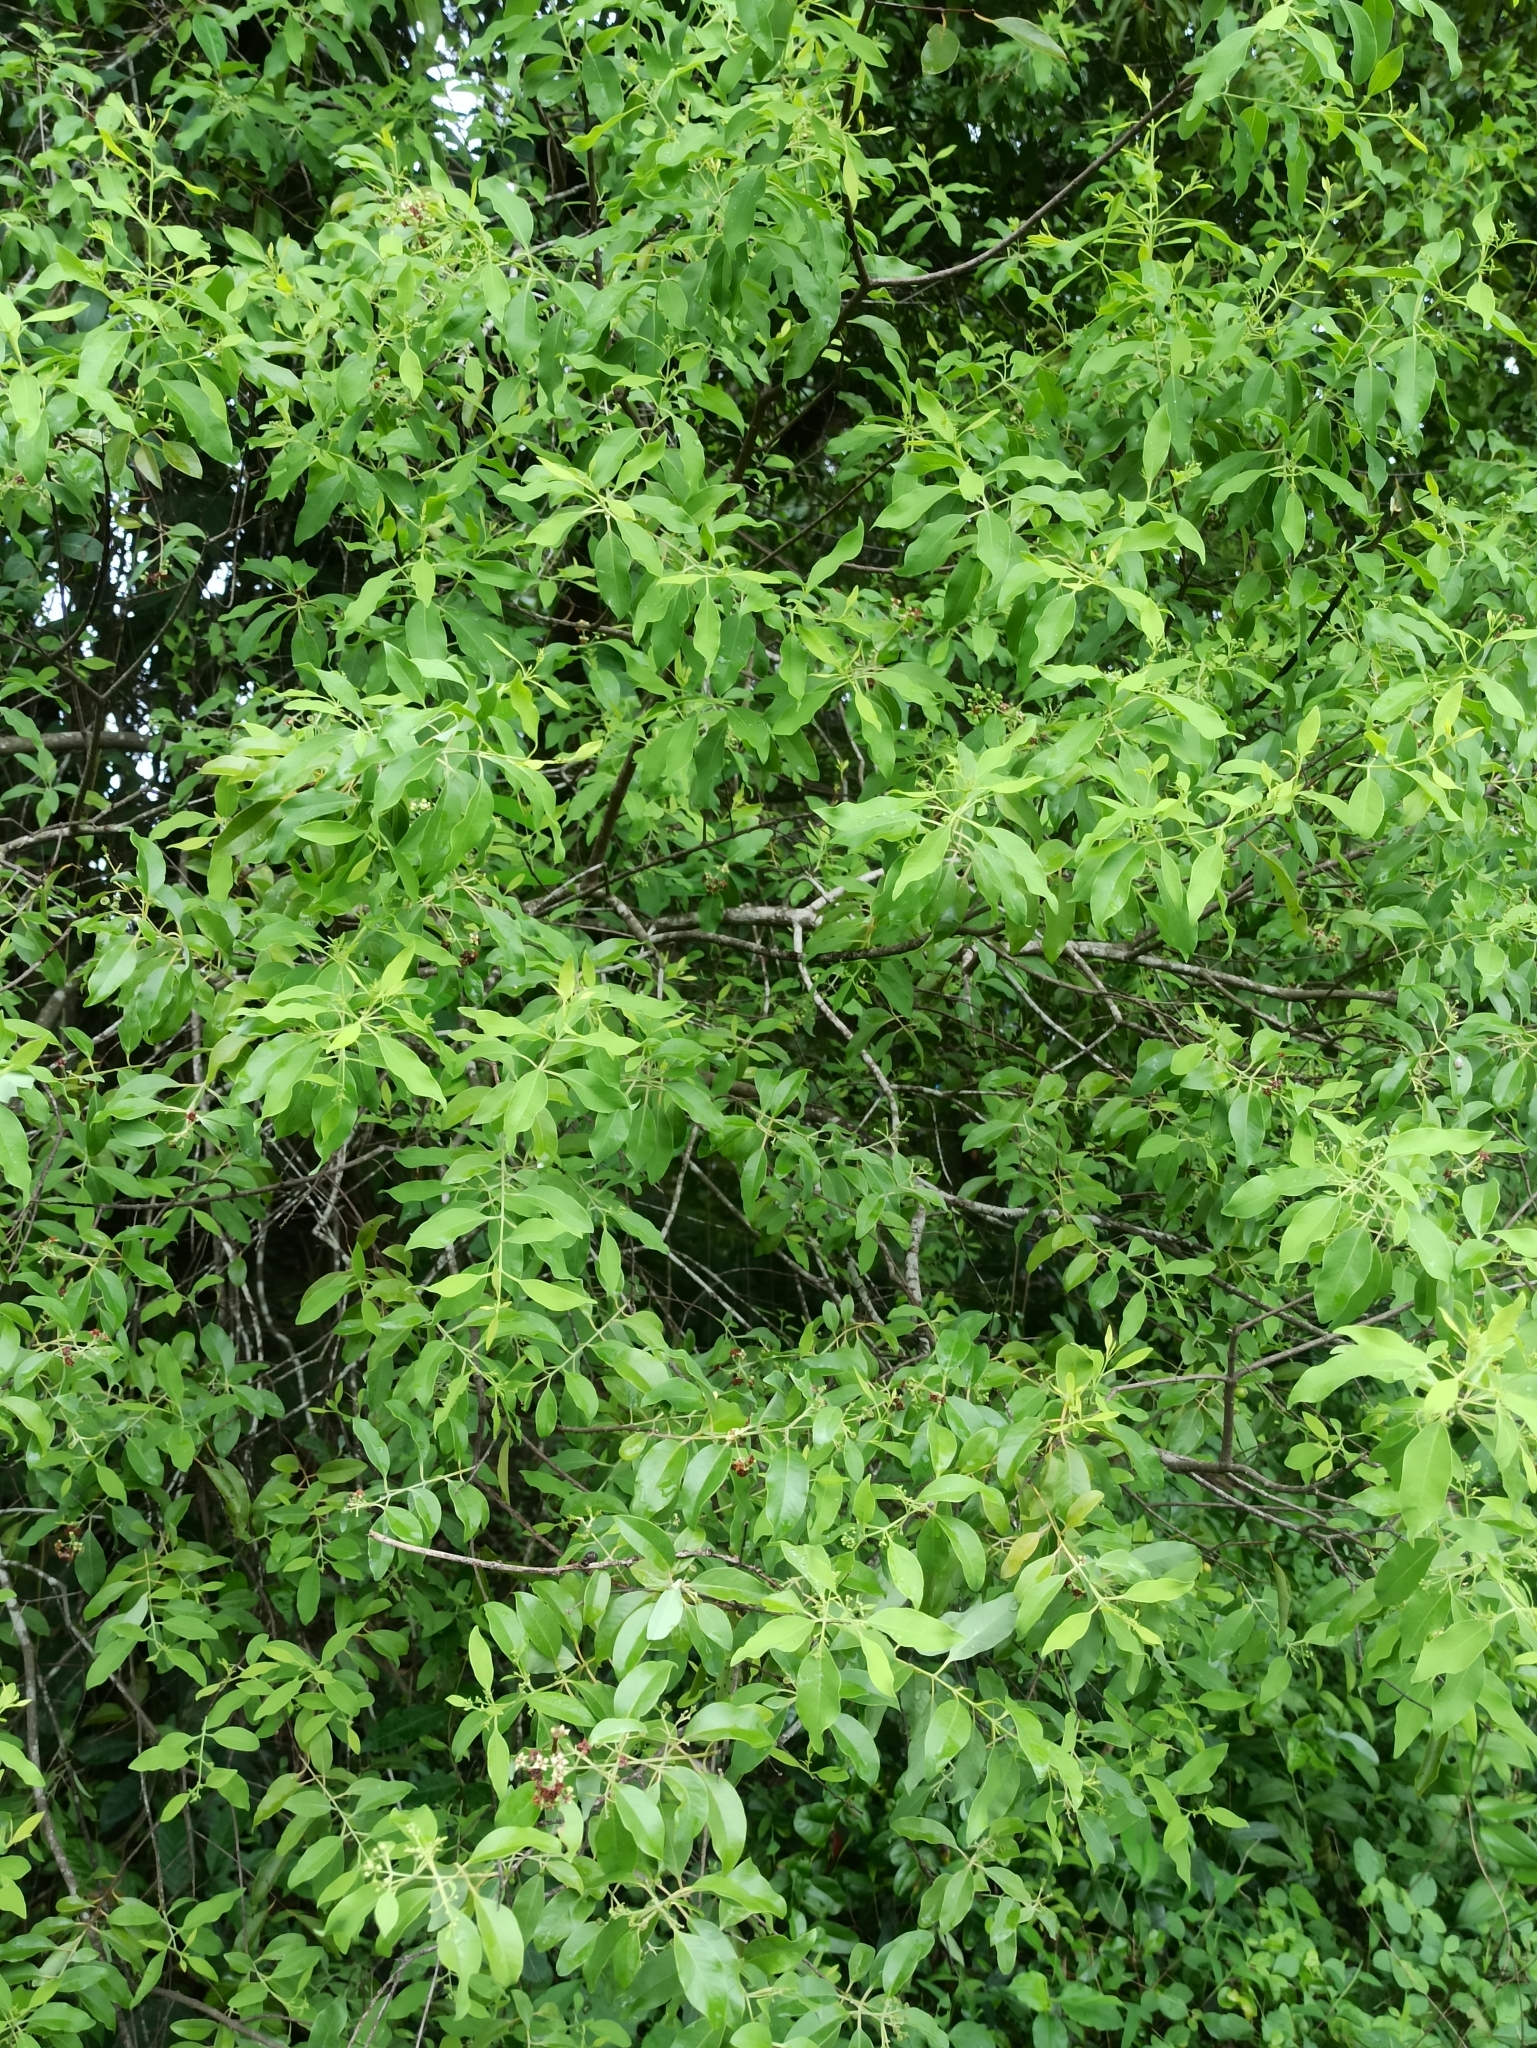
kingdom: Plantae
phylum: Tracheophyta
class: Magnoliopsida
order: Santalales
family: Santalaceae
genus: Santalum
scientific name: Santalum album
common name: Indian sandalwood
